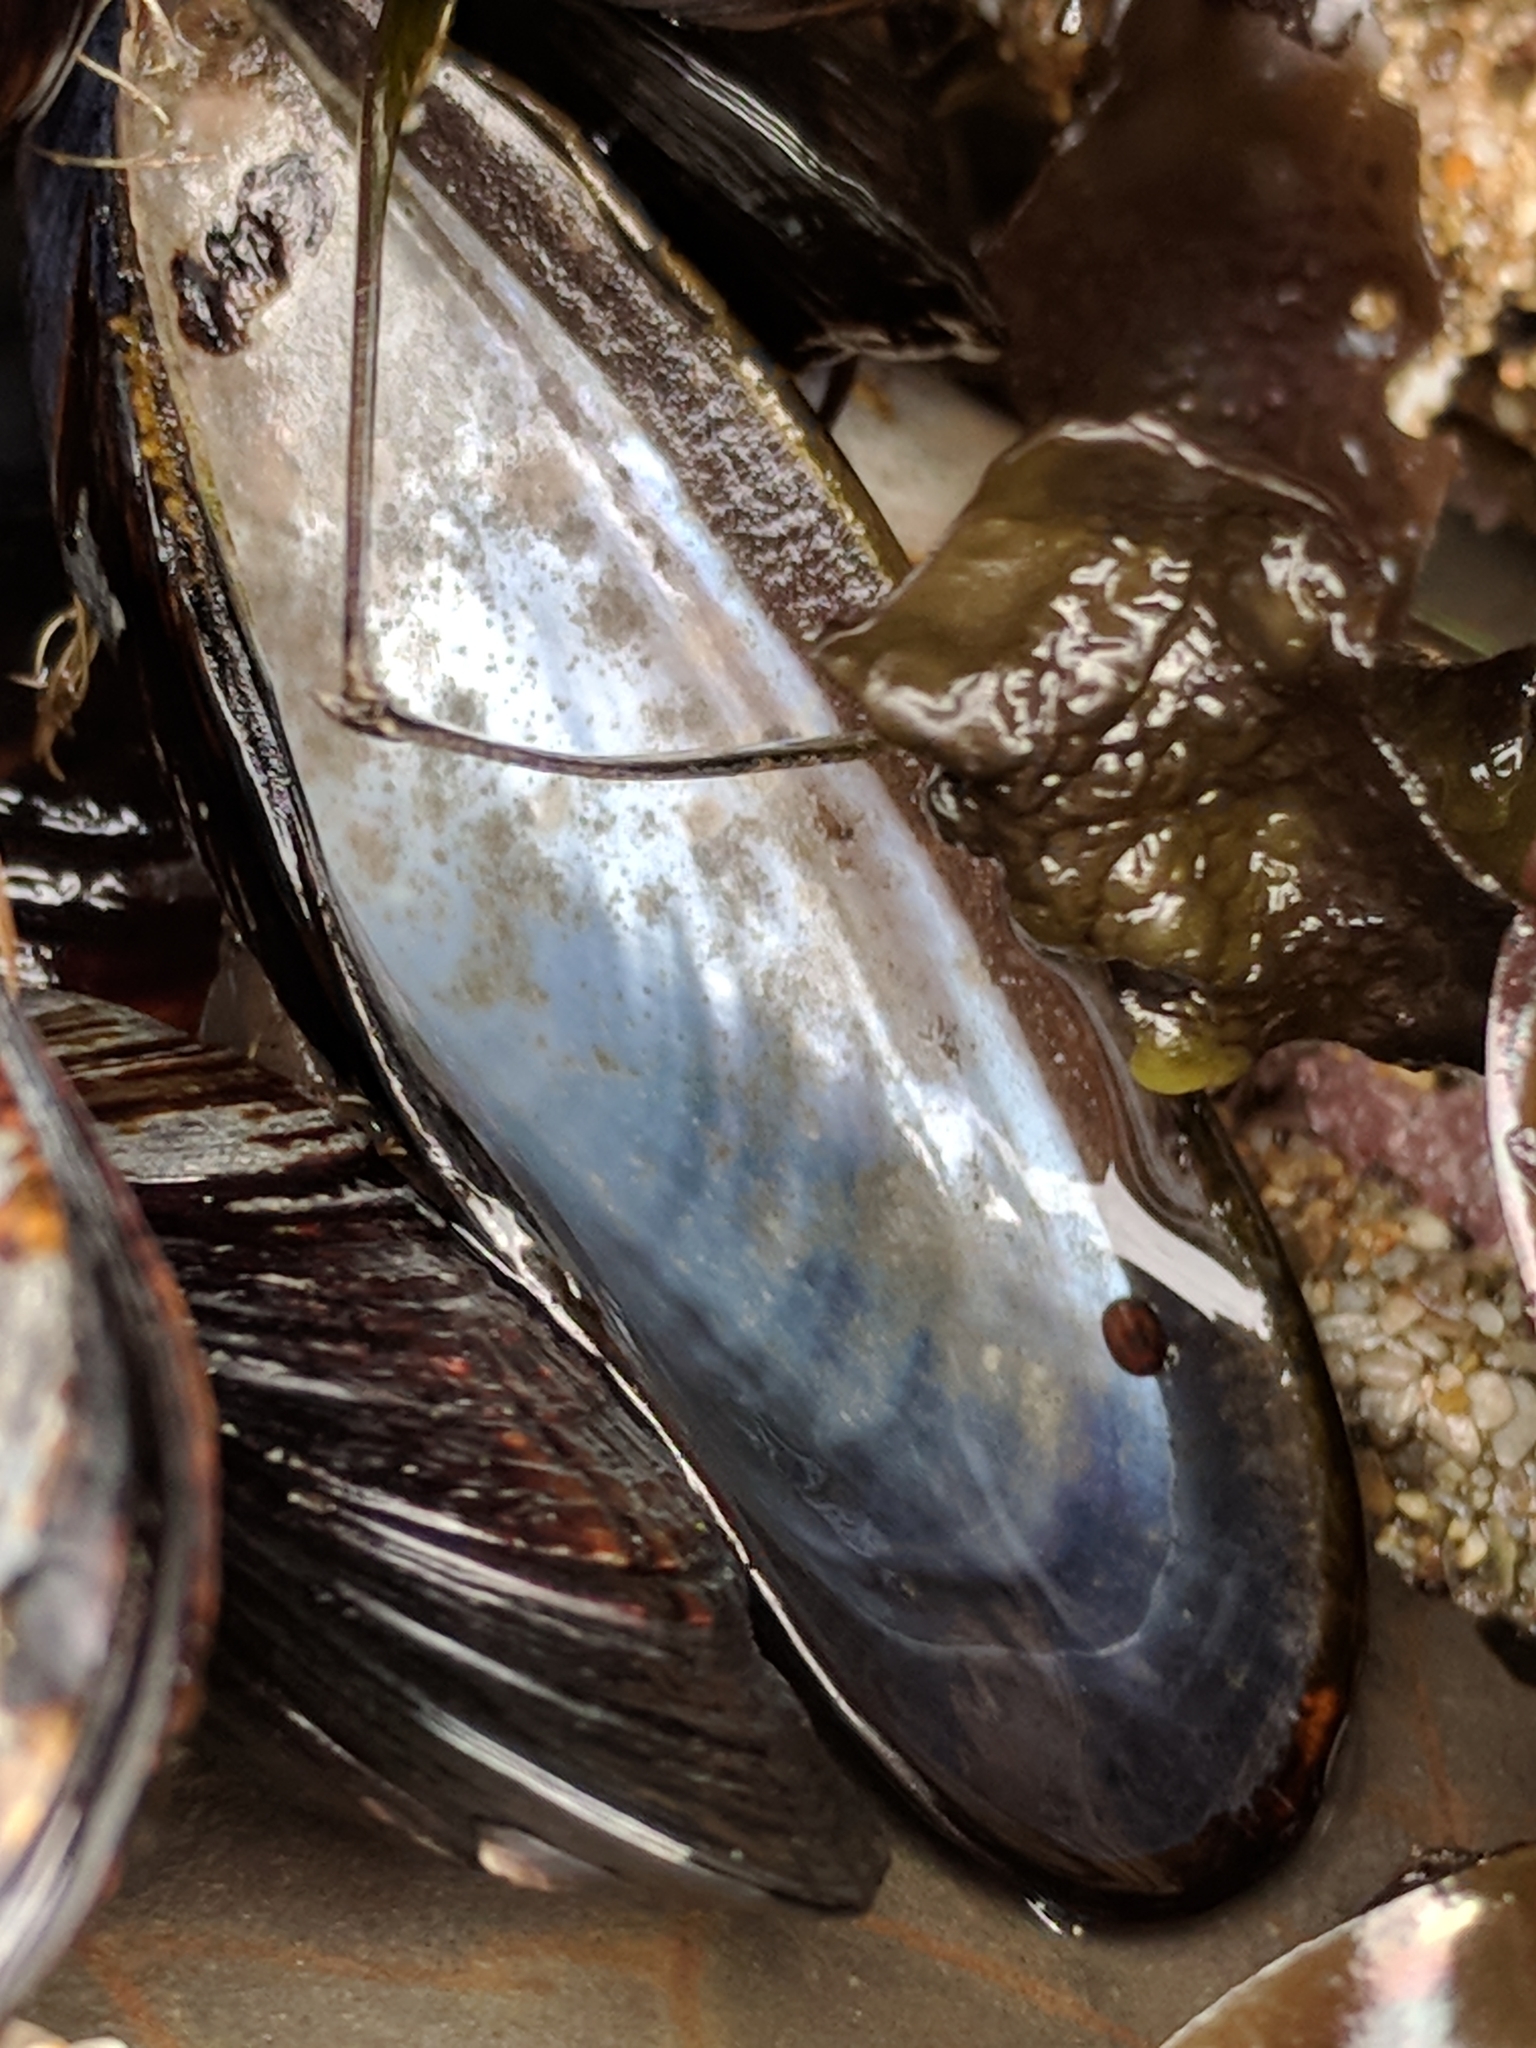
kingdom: Animalia
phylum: Mollusca
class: Bivalvia
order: Mytilida
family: Mytilidae
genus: Mytilus
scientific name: Mytilus californianus
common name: California mussel
